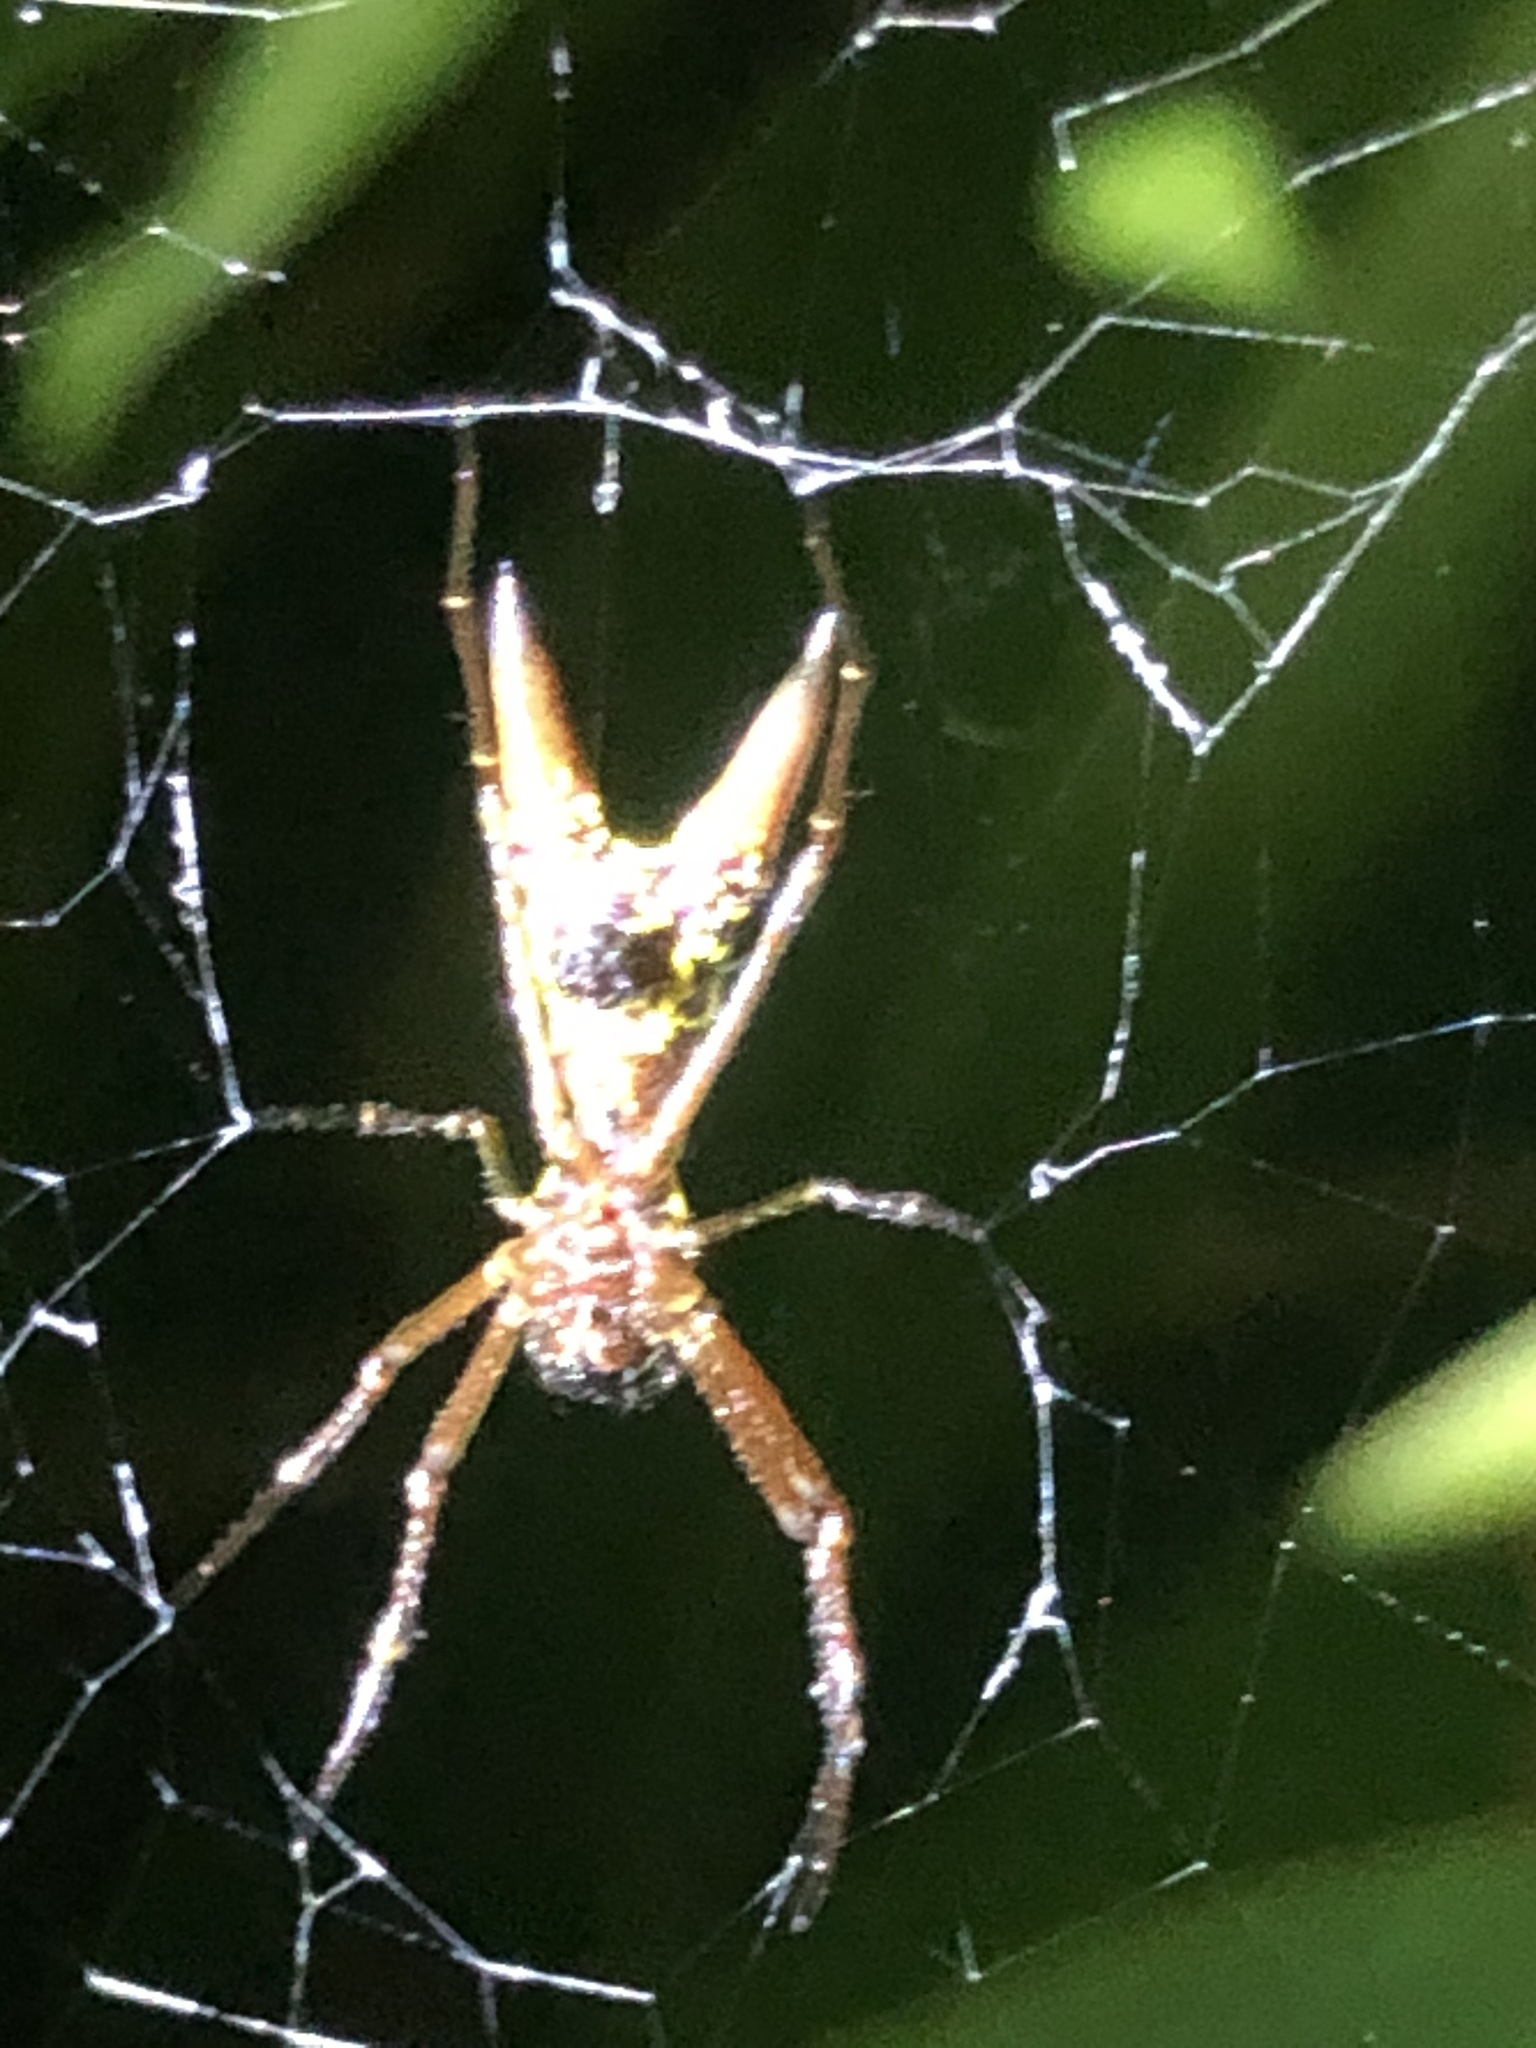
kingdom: Animalia
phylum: Arthropoda
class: Arachnida
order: Araneae
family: Araneidae
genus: Micrathena
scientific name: Micrathena sexspinosa
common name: Orb weavers
